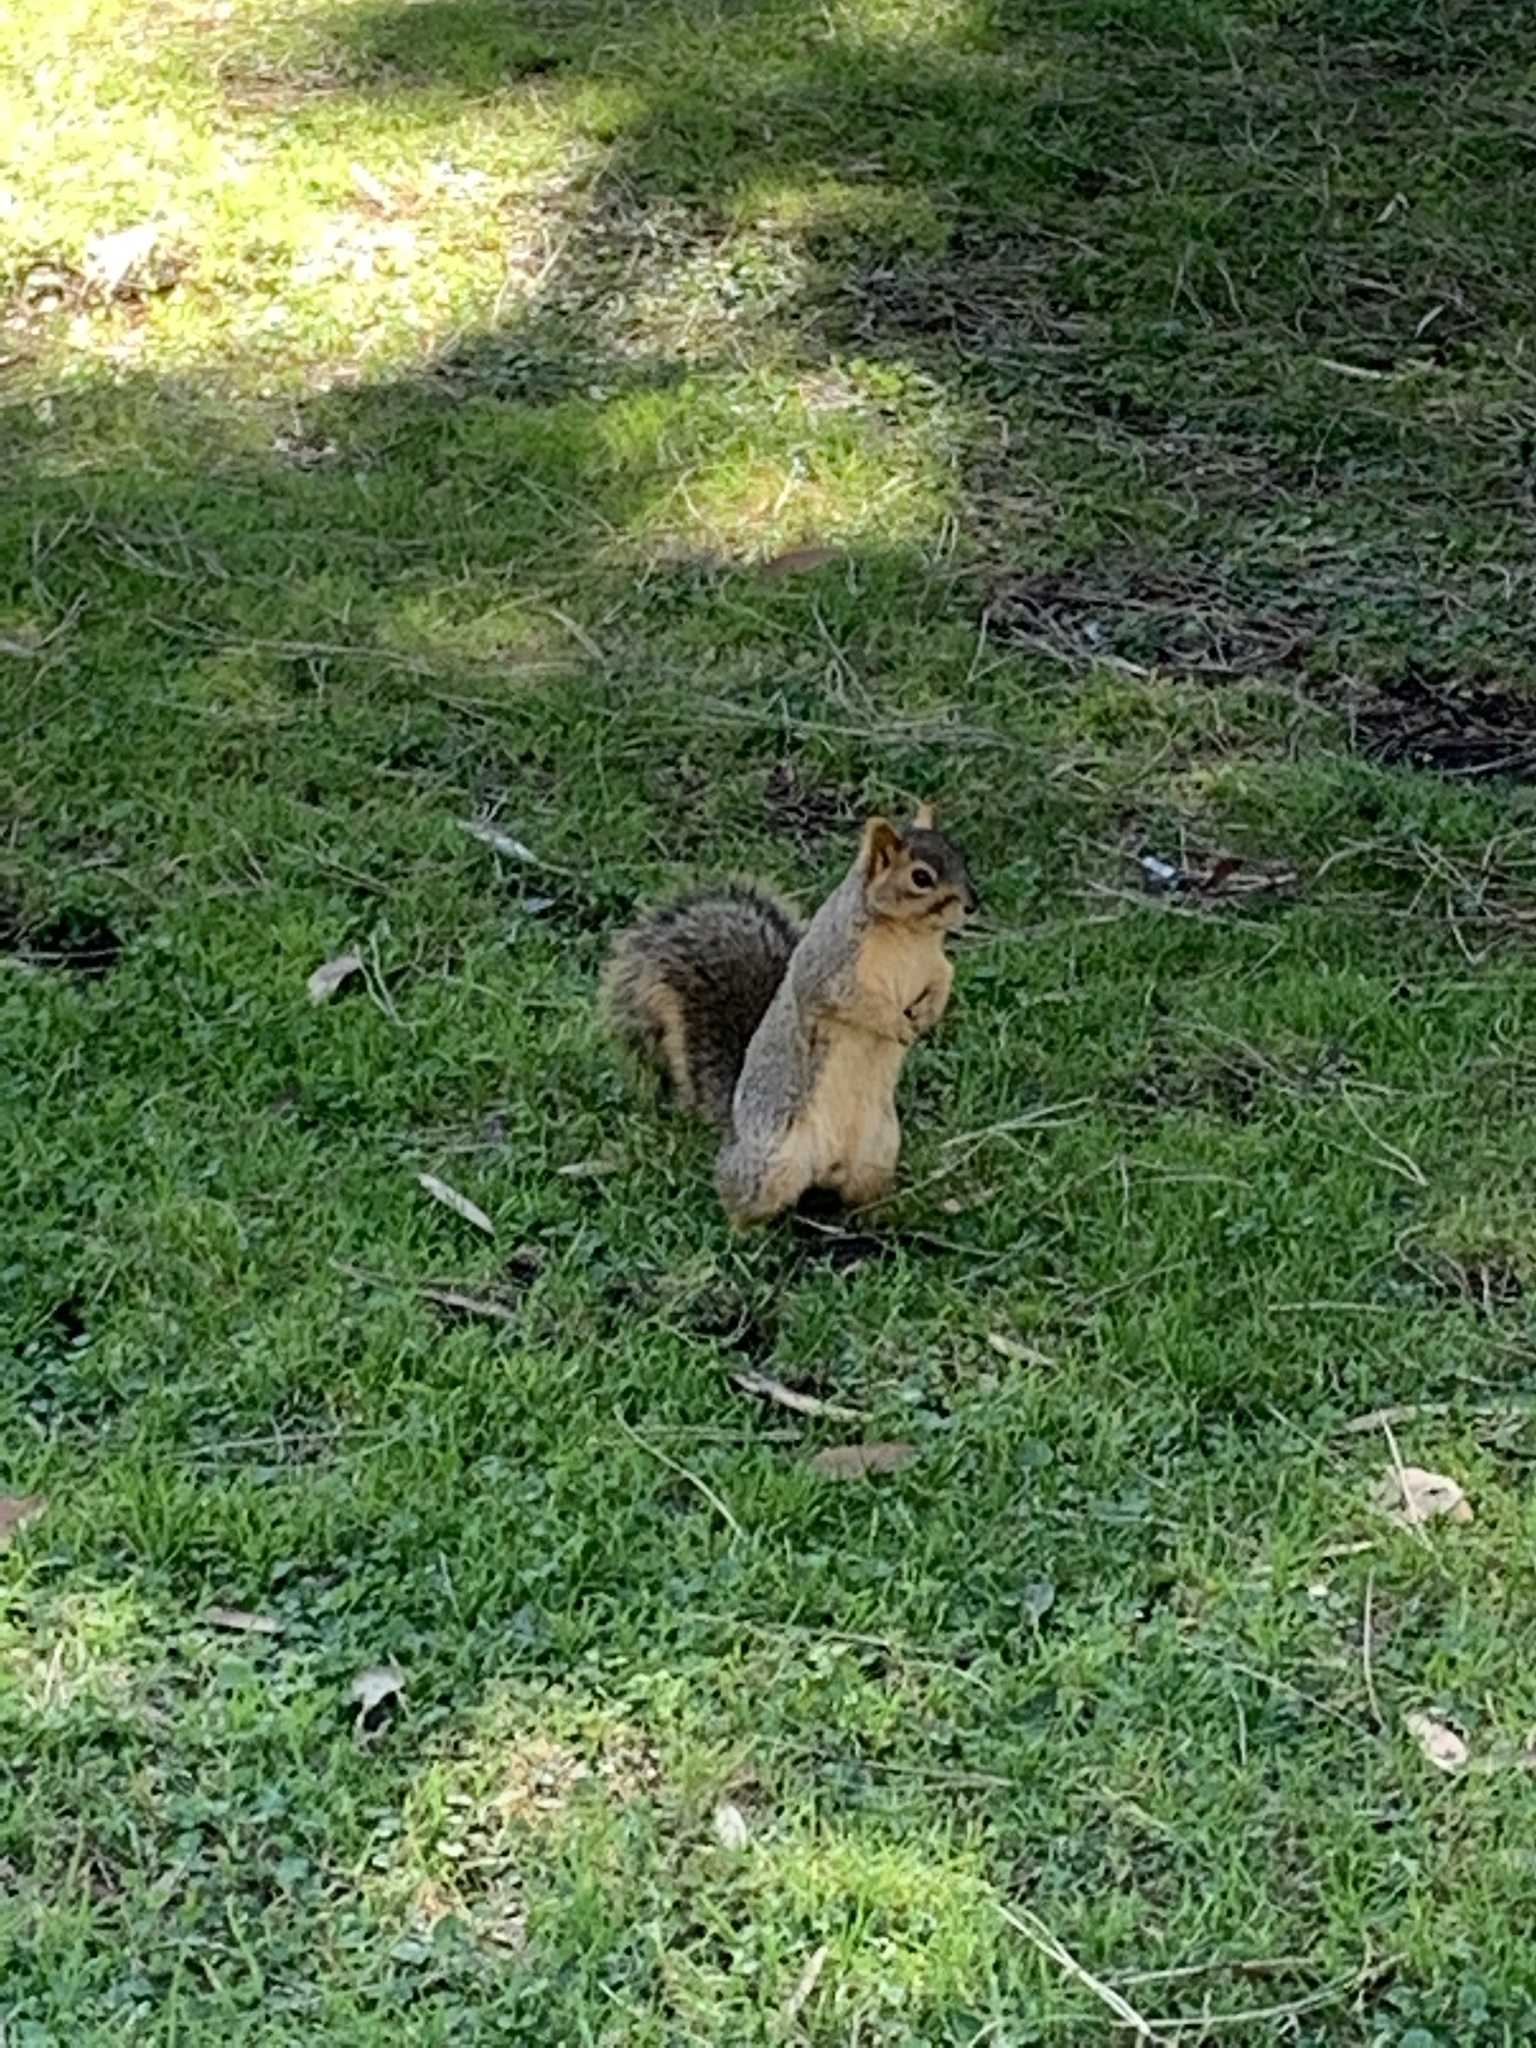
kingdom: Animalia
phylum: Chordata
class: Mammalia
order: Rodentia
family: Sciuridae
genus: Sciurus
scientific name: Sciurus niger
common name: Fox squirrel
